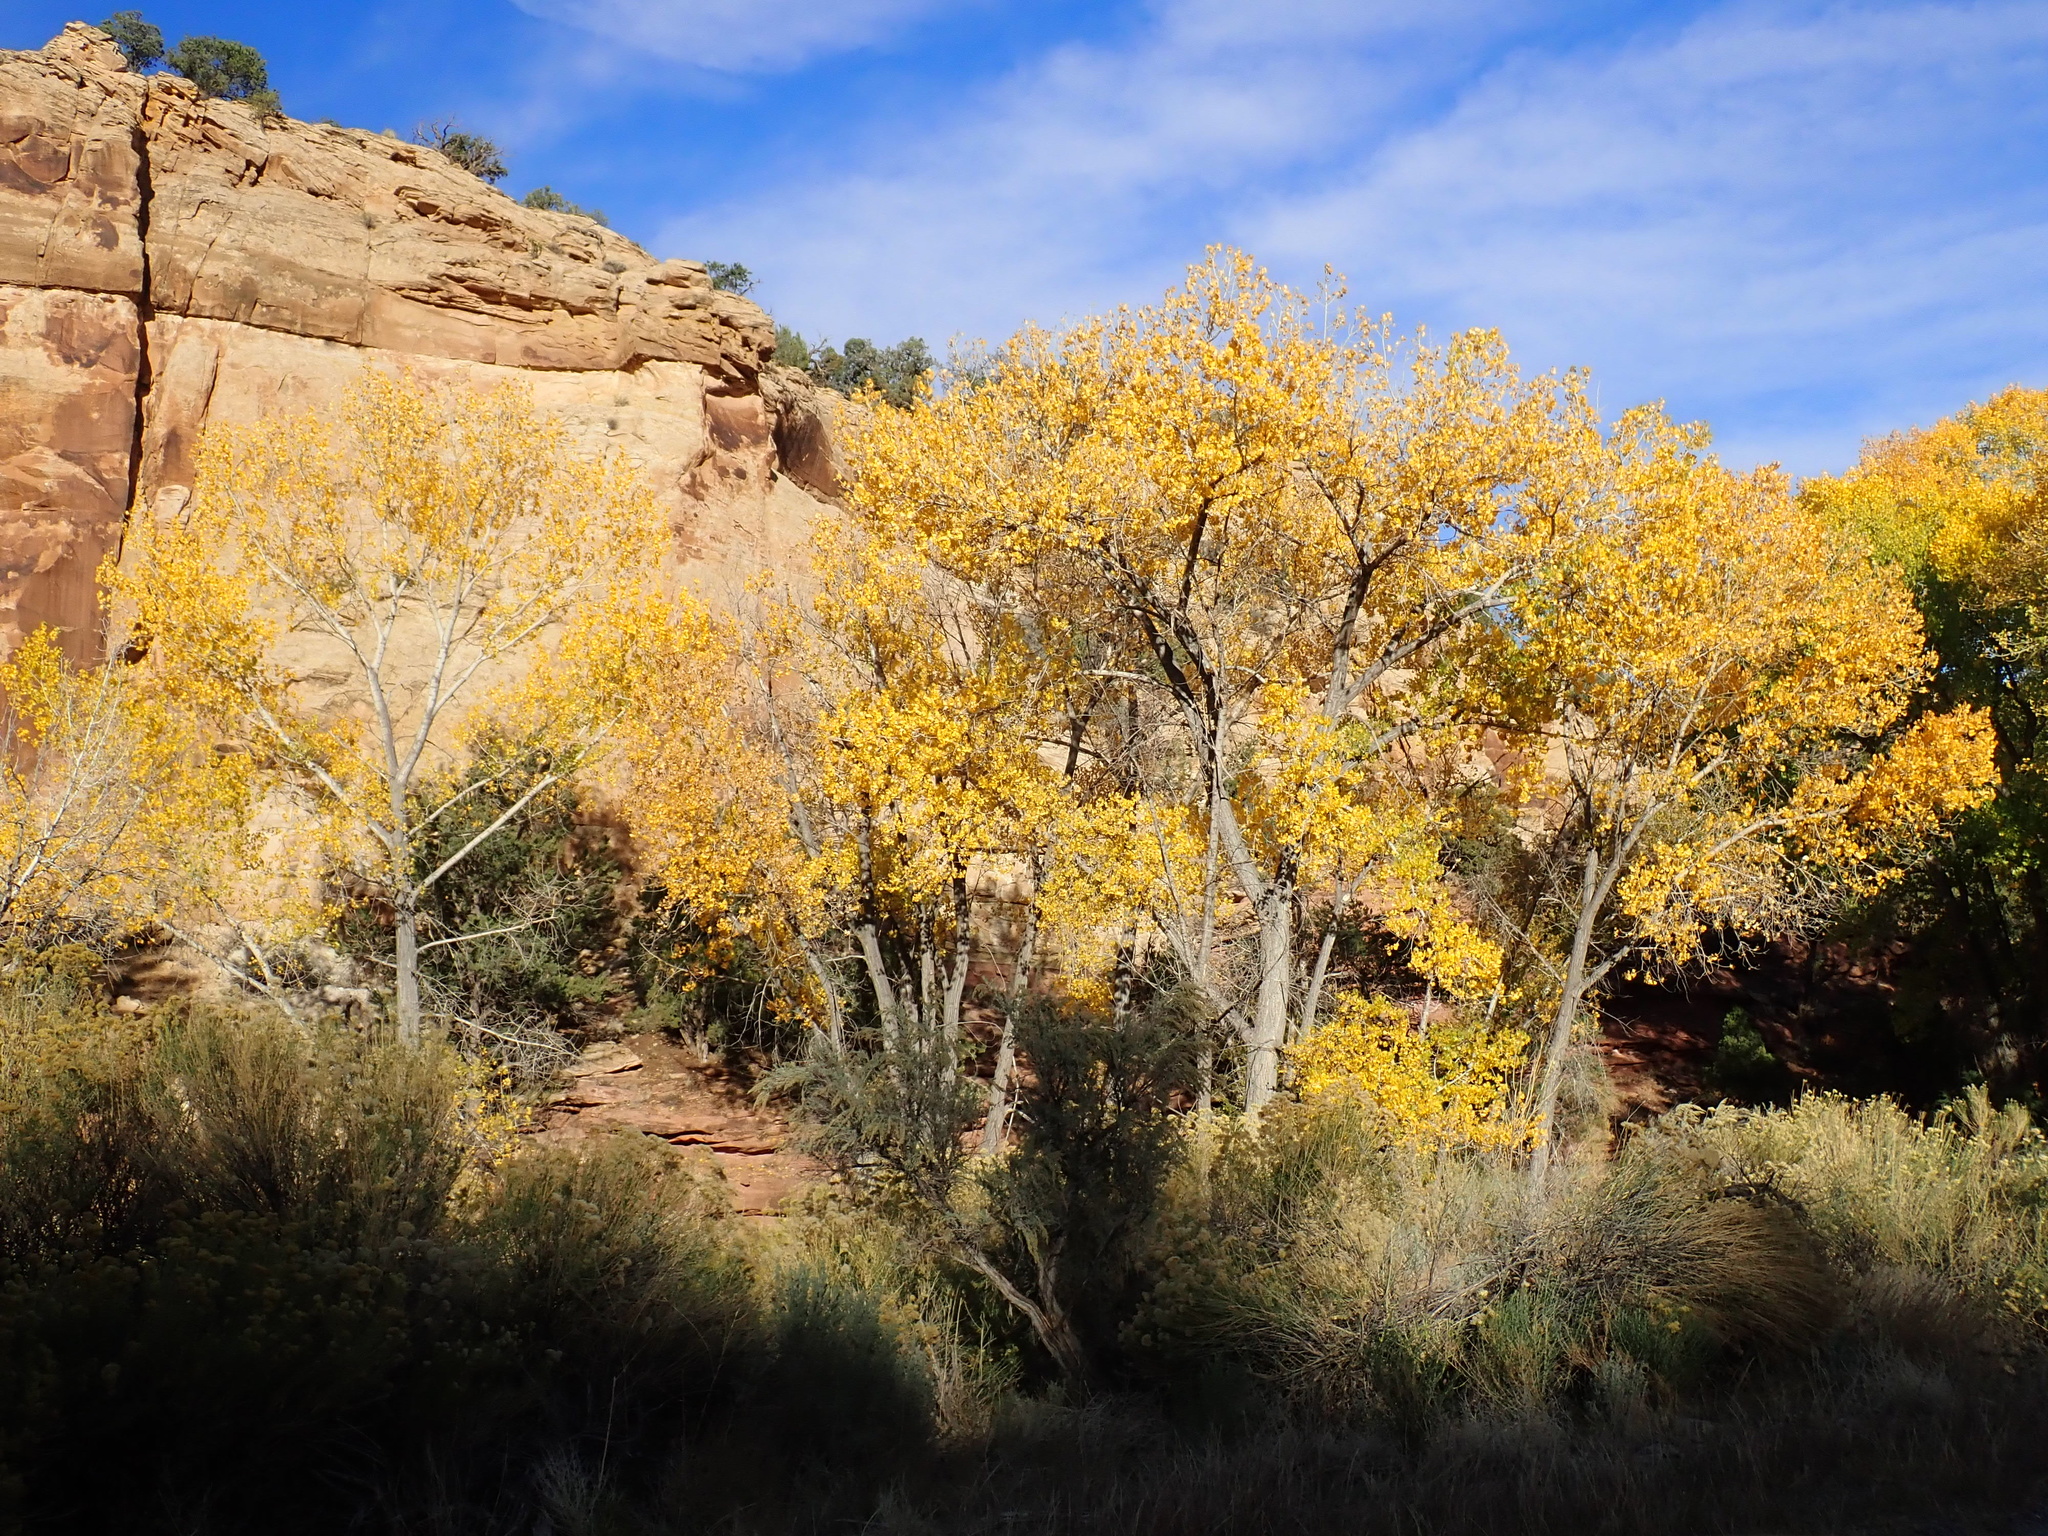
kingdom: Plantae
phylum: Tracheophyta
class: Magnoliopsida
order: Malpighiales
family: Salicaceae
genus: Populus
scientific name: Populus fremontii
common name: Fremont's cottonwood
